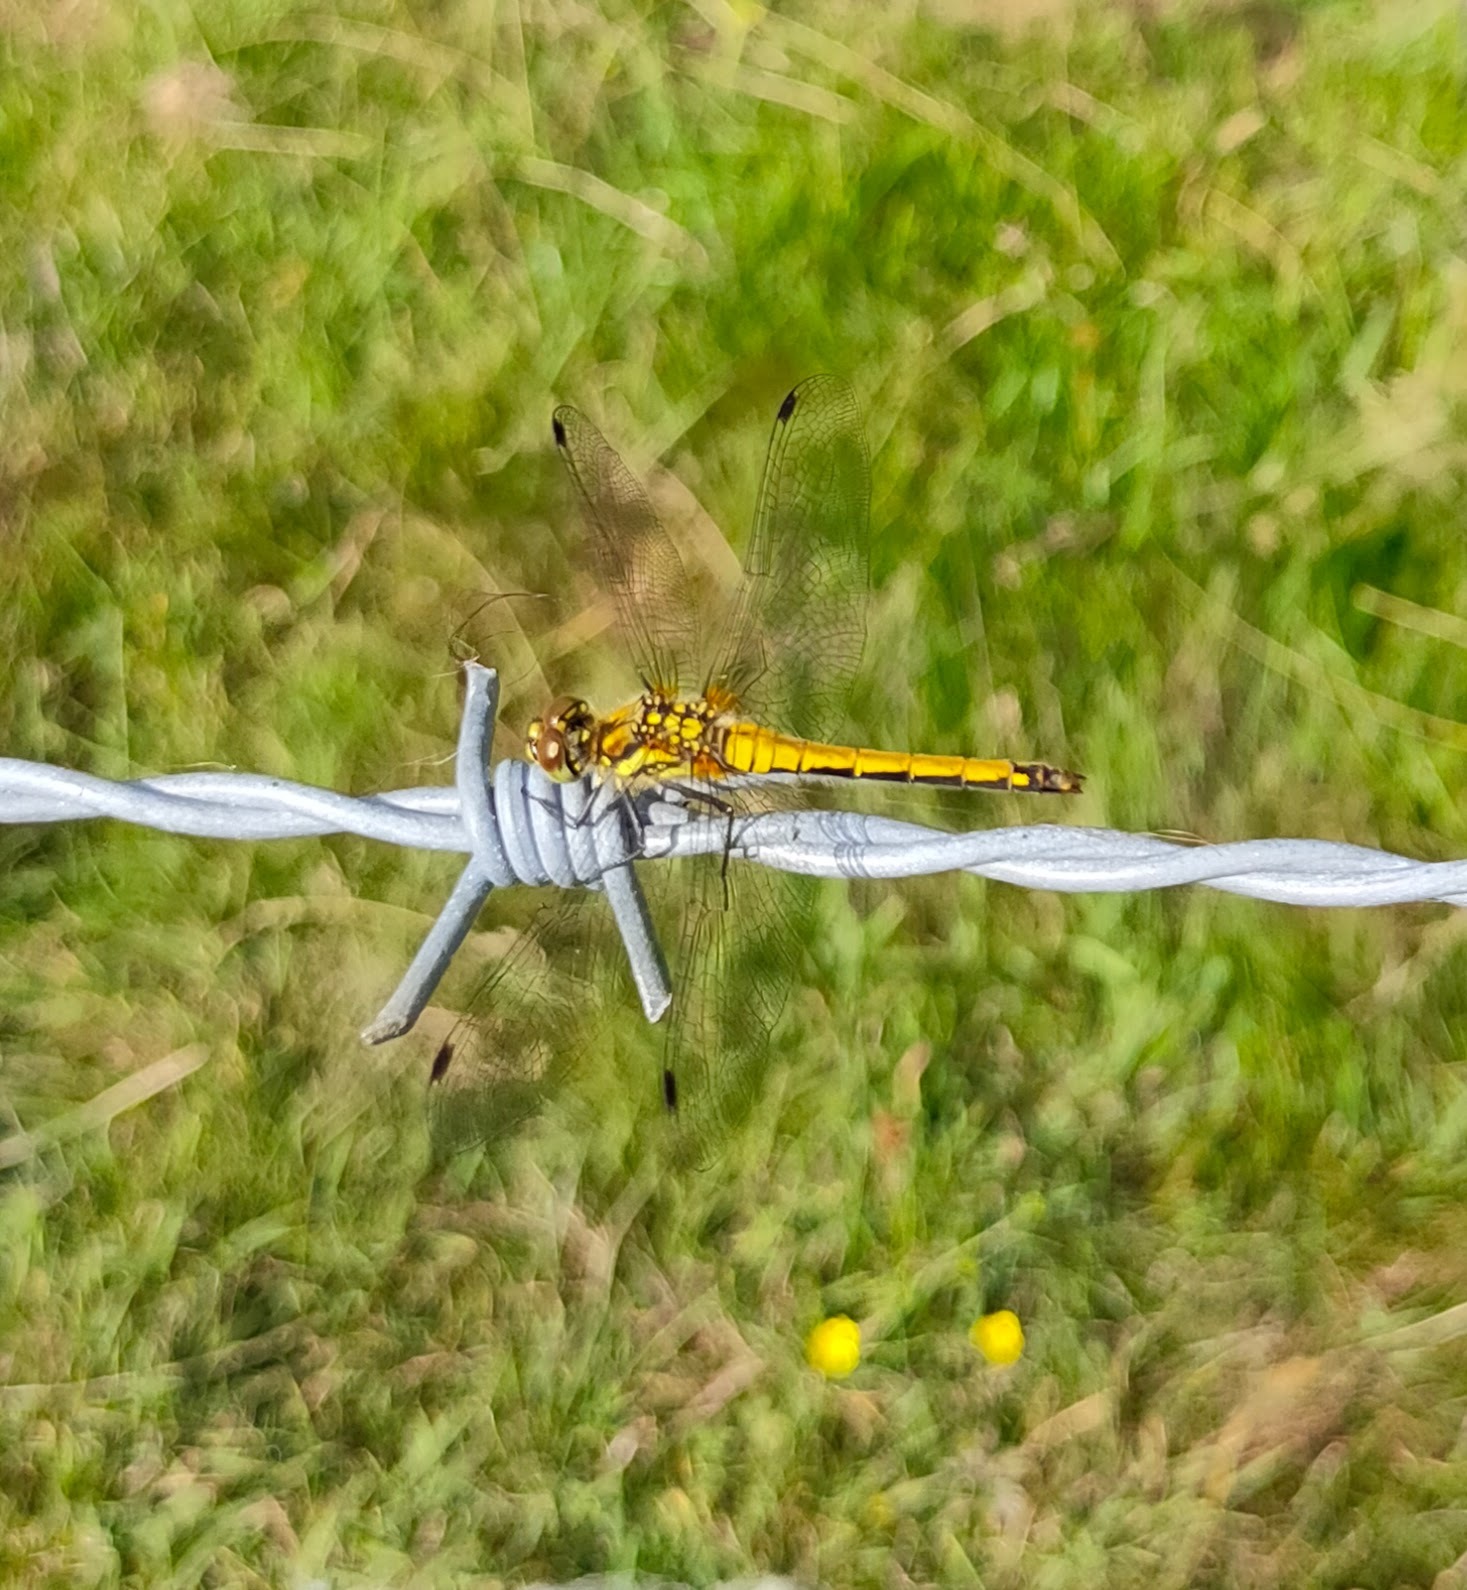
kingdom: Animalia
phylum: Arthropoda
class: Insecta
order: Odonata
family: Libellulidae
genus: Sympetrum
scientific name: Sympetrum danae
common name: Black darter
